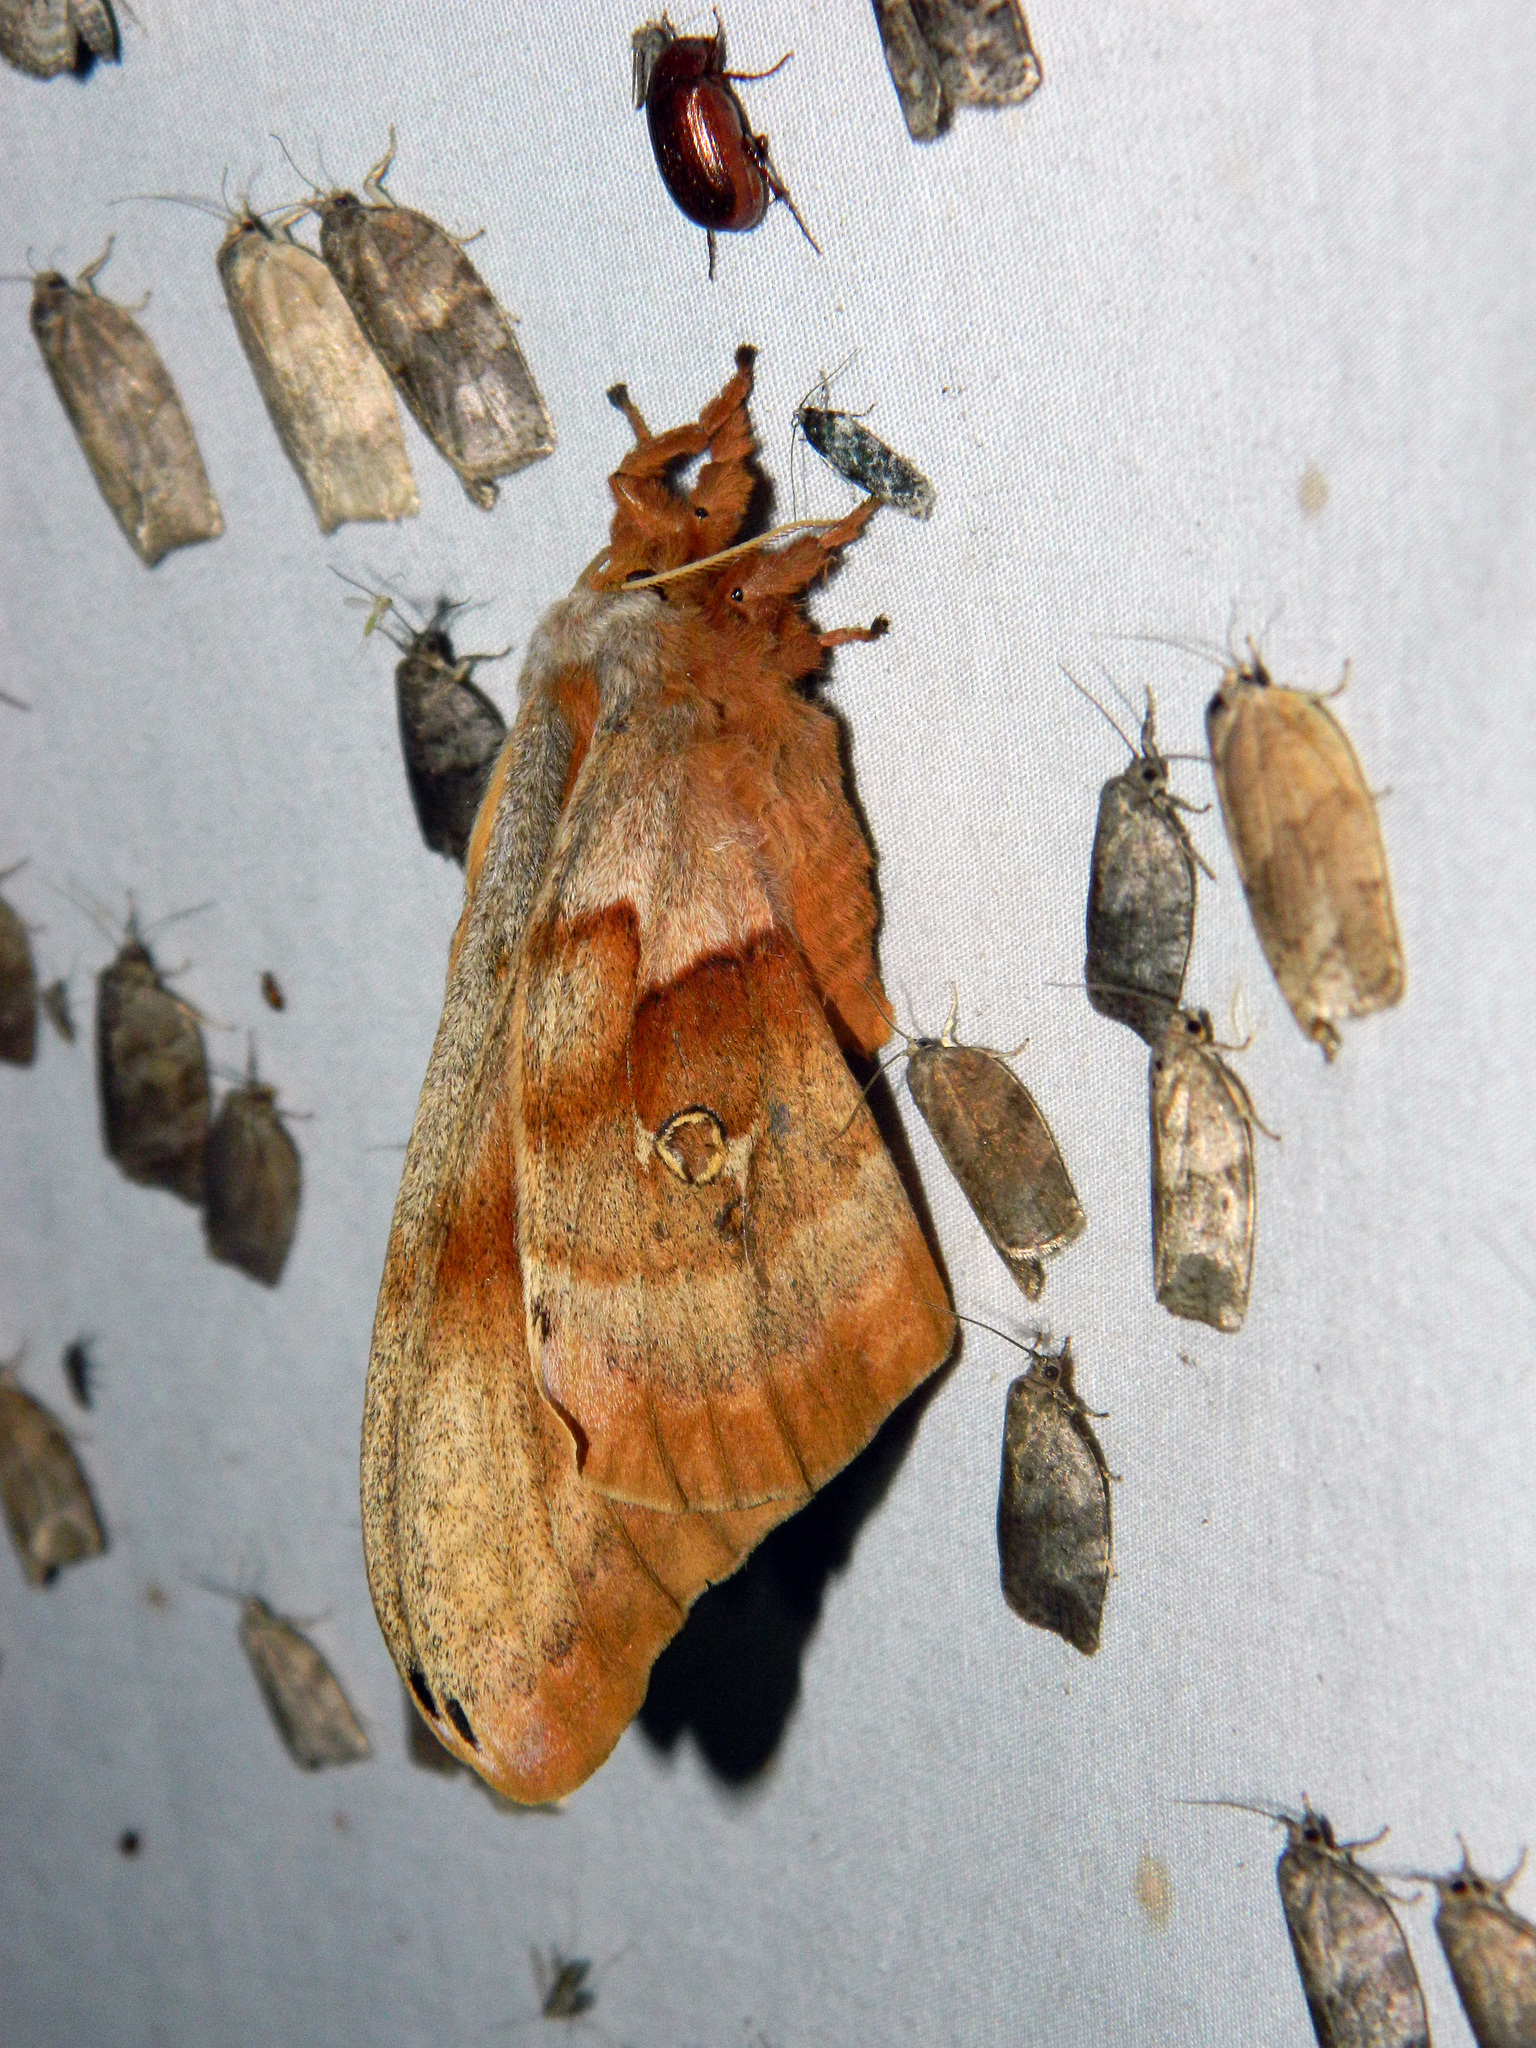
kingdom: Animalia
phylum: Arthropoda
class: Insecta
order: Lepidoptera
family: Saturniidae
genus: Antheraea
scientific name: Antheraea polyphemus
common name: Polyphemus moth
